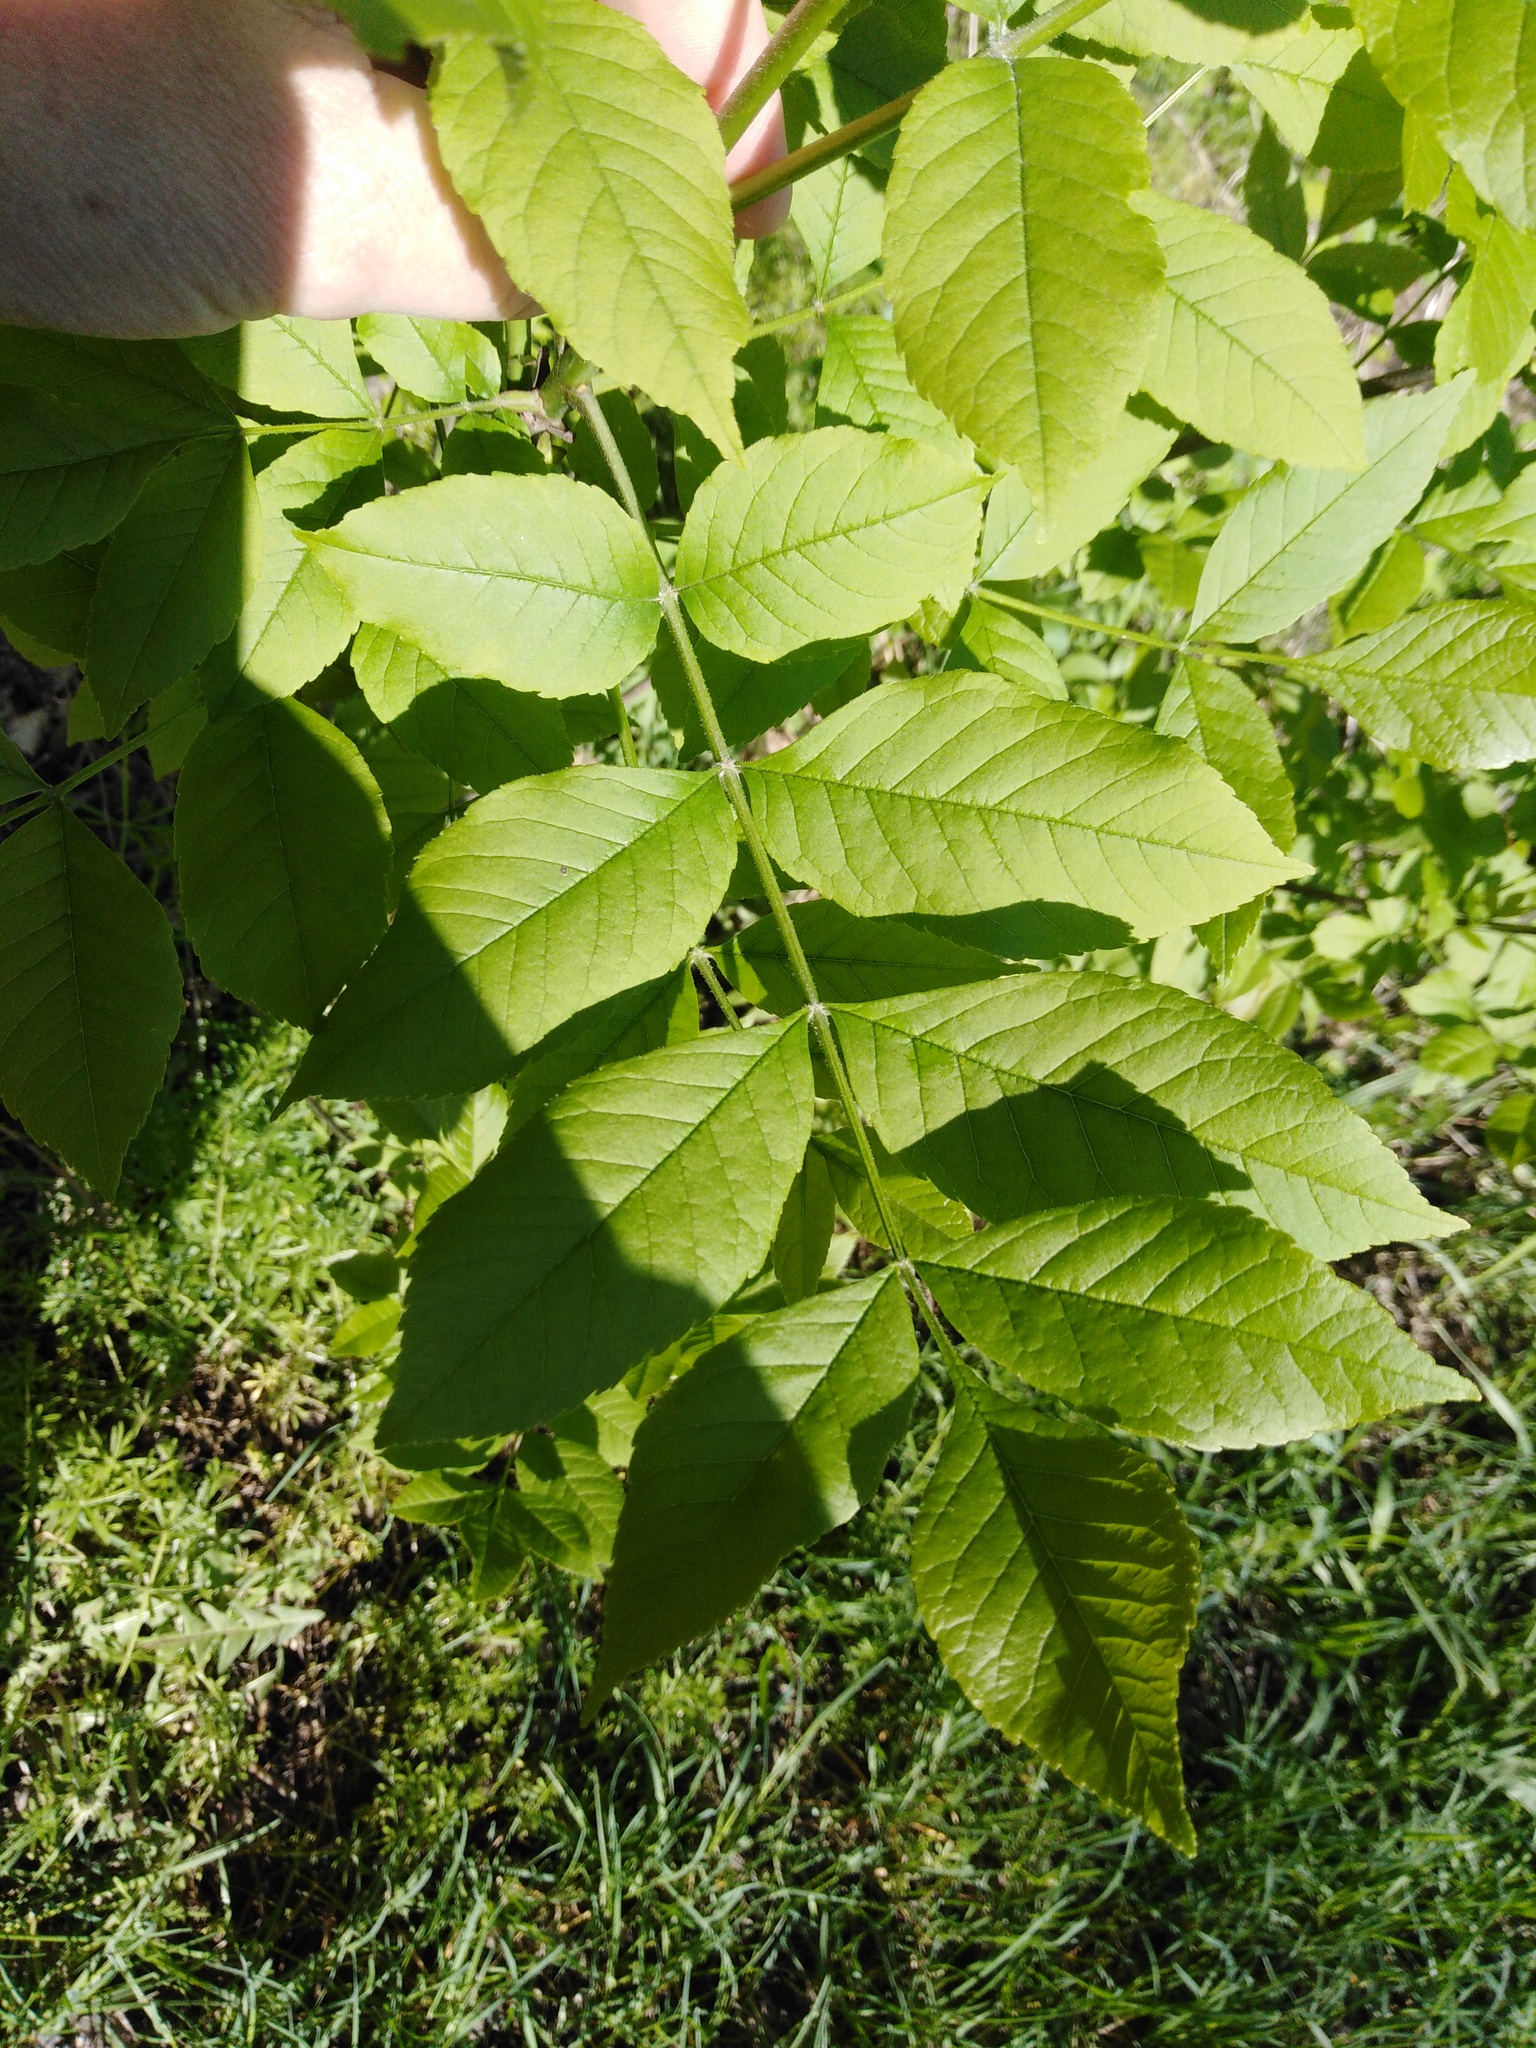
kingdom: Plantae
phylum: Tracheophyta
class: Magnoliopsida
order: Lamiales
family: Oleaceae
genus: Fraxinus
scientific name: Fraxinus excelsior
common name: European ash
